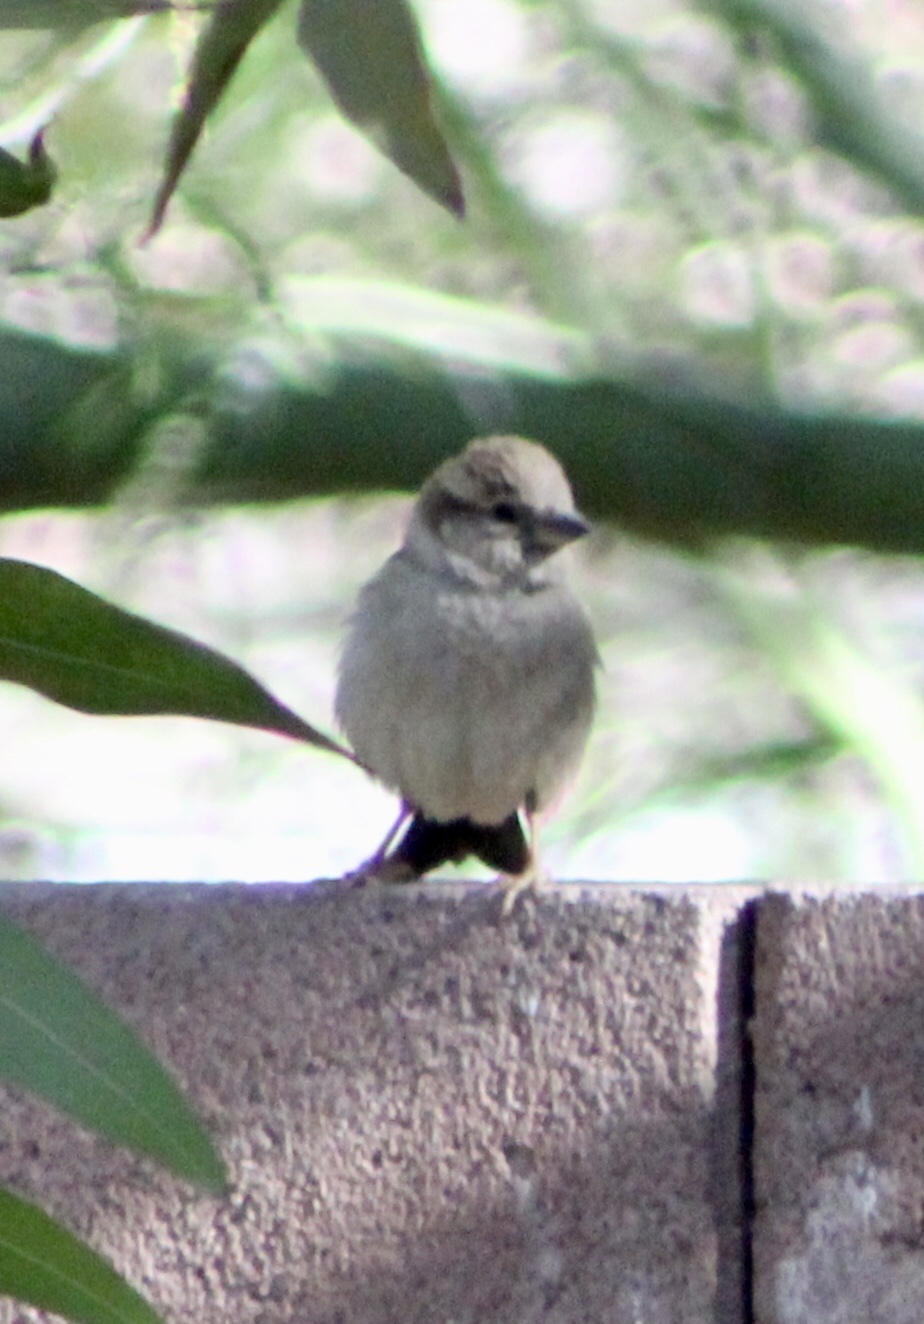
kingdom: Animalia
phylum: Chordata
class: Aves
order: Passeriformes
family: Passeridae
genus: Passer
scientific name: Passer domesticus
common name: House sparrow
